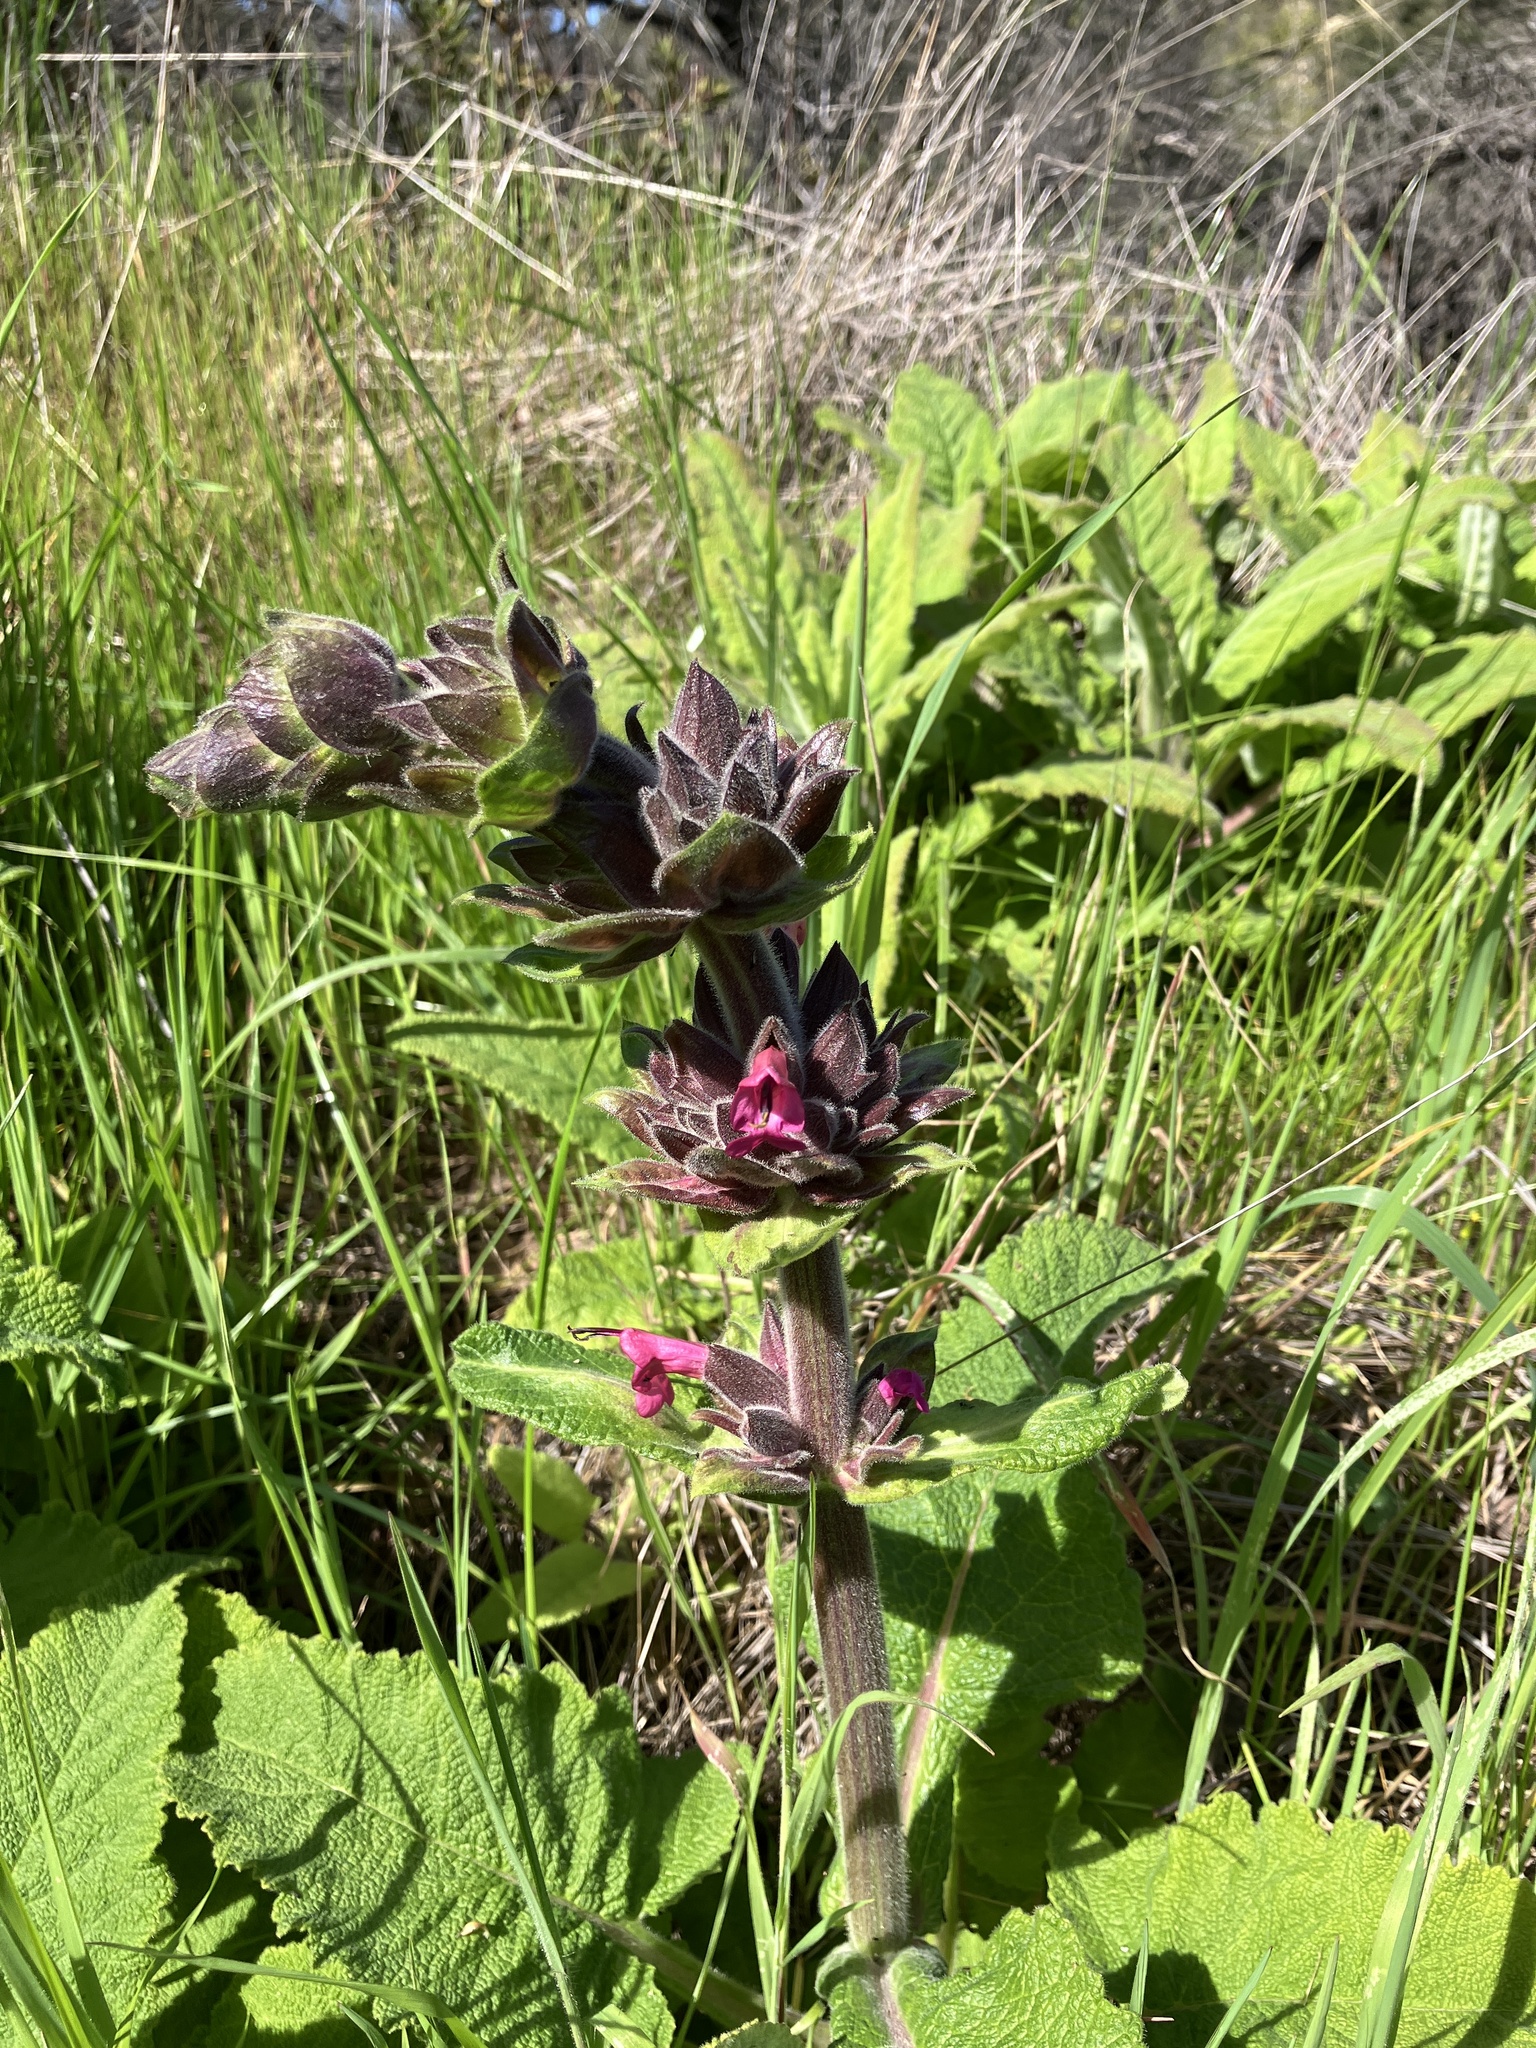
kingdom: Plantae
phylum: Tracheophyta
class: Magnoliopsida
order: Lamiales
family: Lamiaceae
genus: Salvia
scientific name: Salvia spathacea
